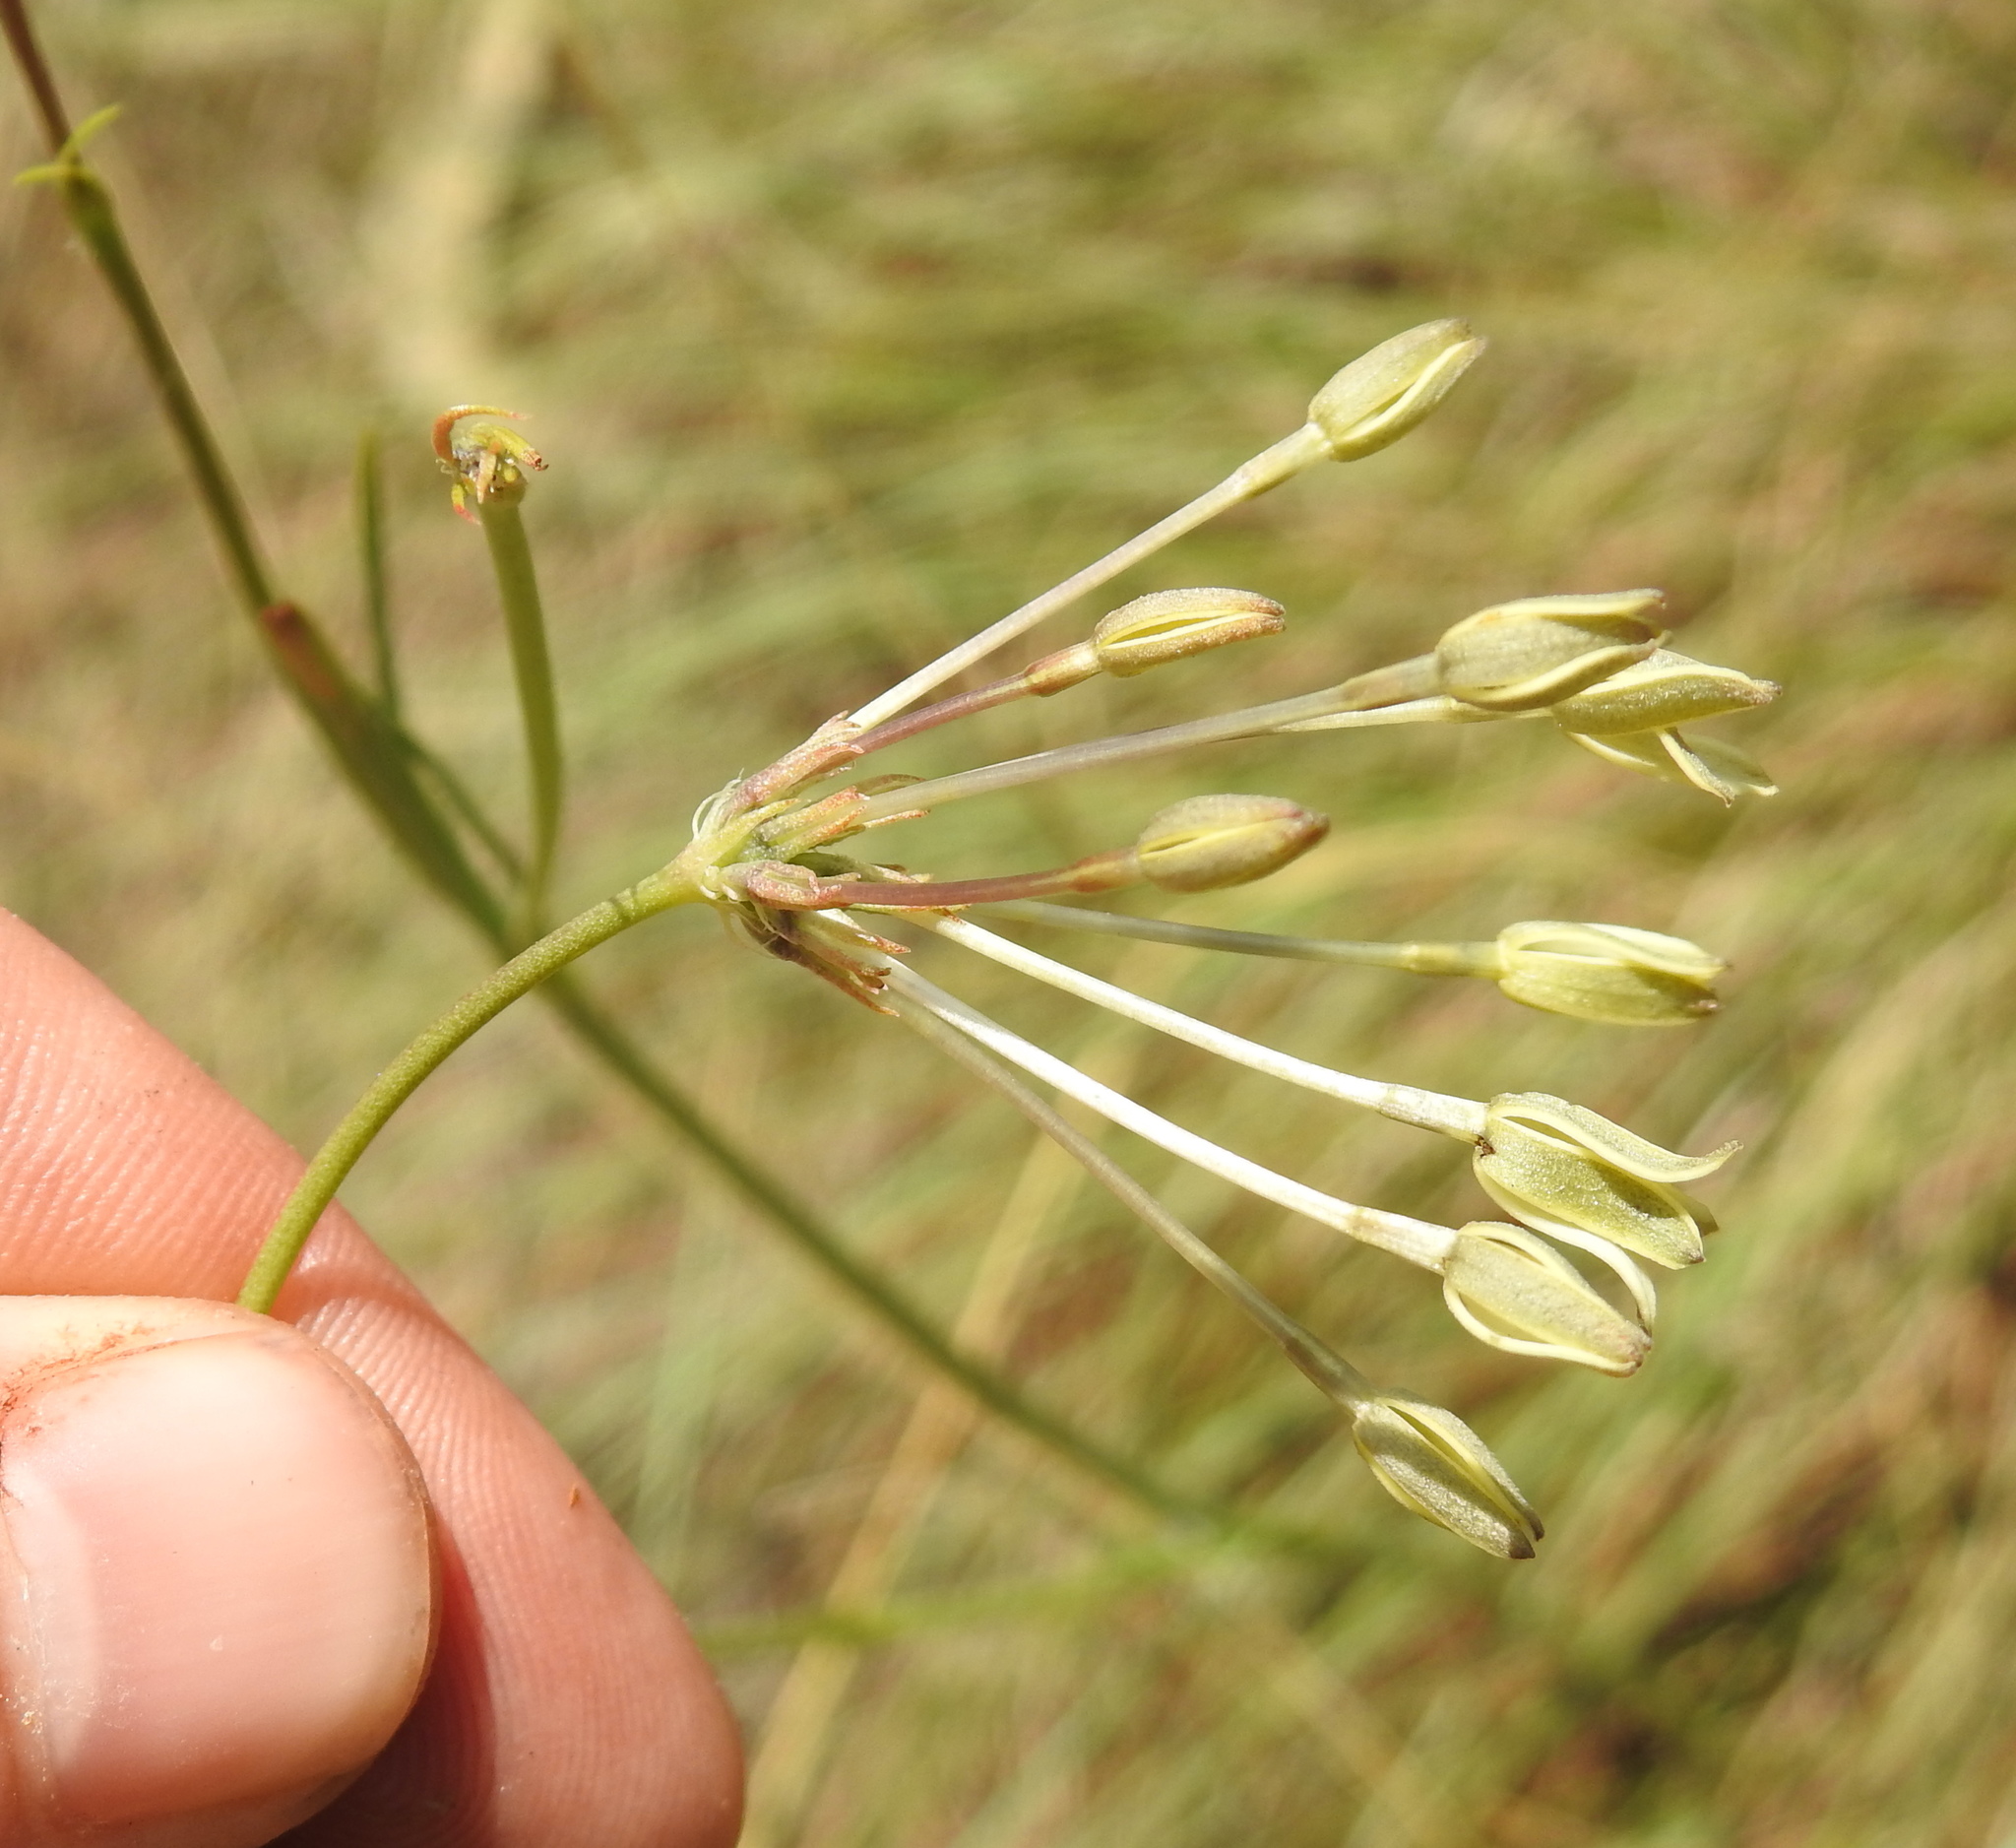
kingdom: Plantae
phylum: Tracheophyta
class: Magnoliopsida
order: Gentianales
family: Rubiaceae
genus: Kohautia
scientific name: Kohautia amatymbica
